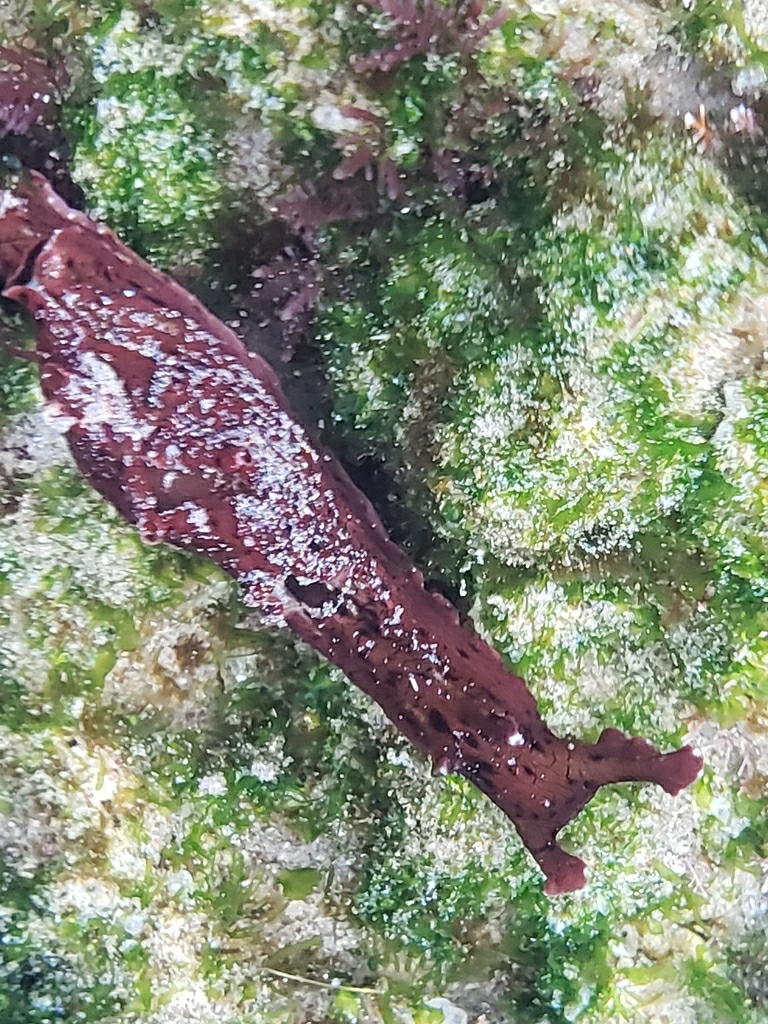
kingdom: Animalia
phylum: Mollusca
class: Gastropoda
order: Aplysiida
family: Aplysiidae
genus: Aplysia
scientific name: Aplysia californica
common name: California seahare
